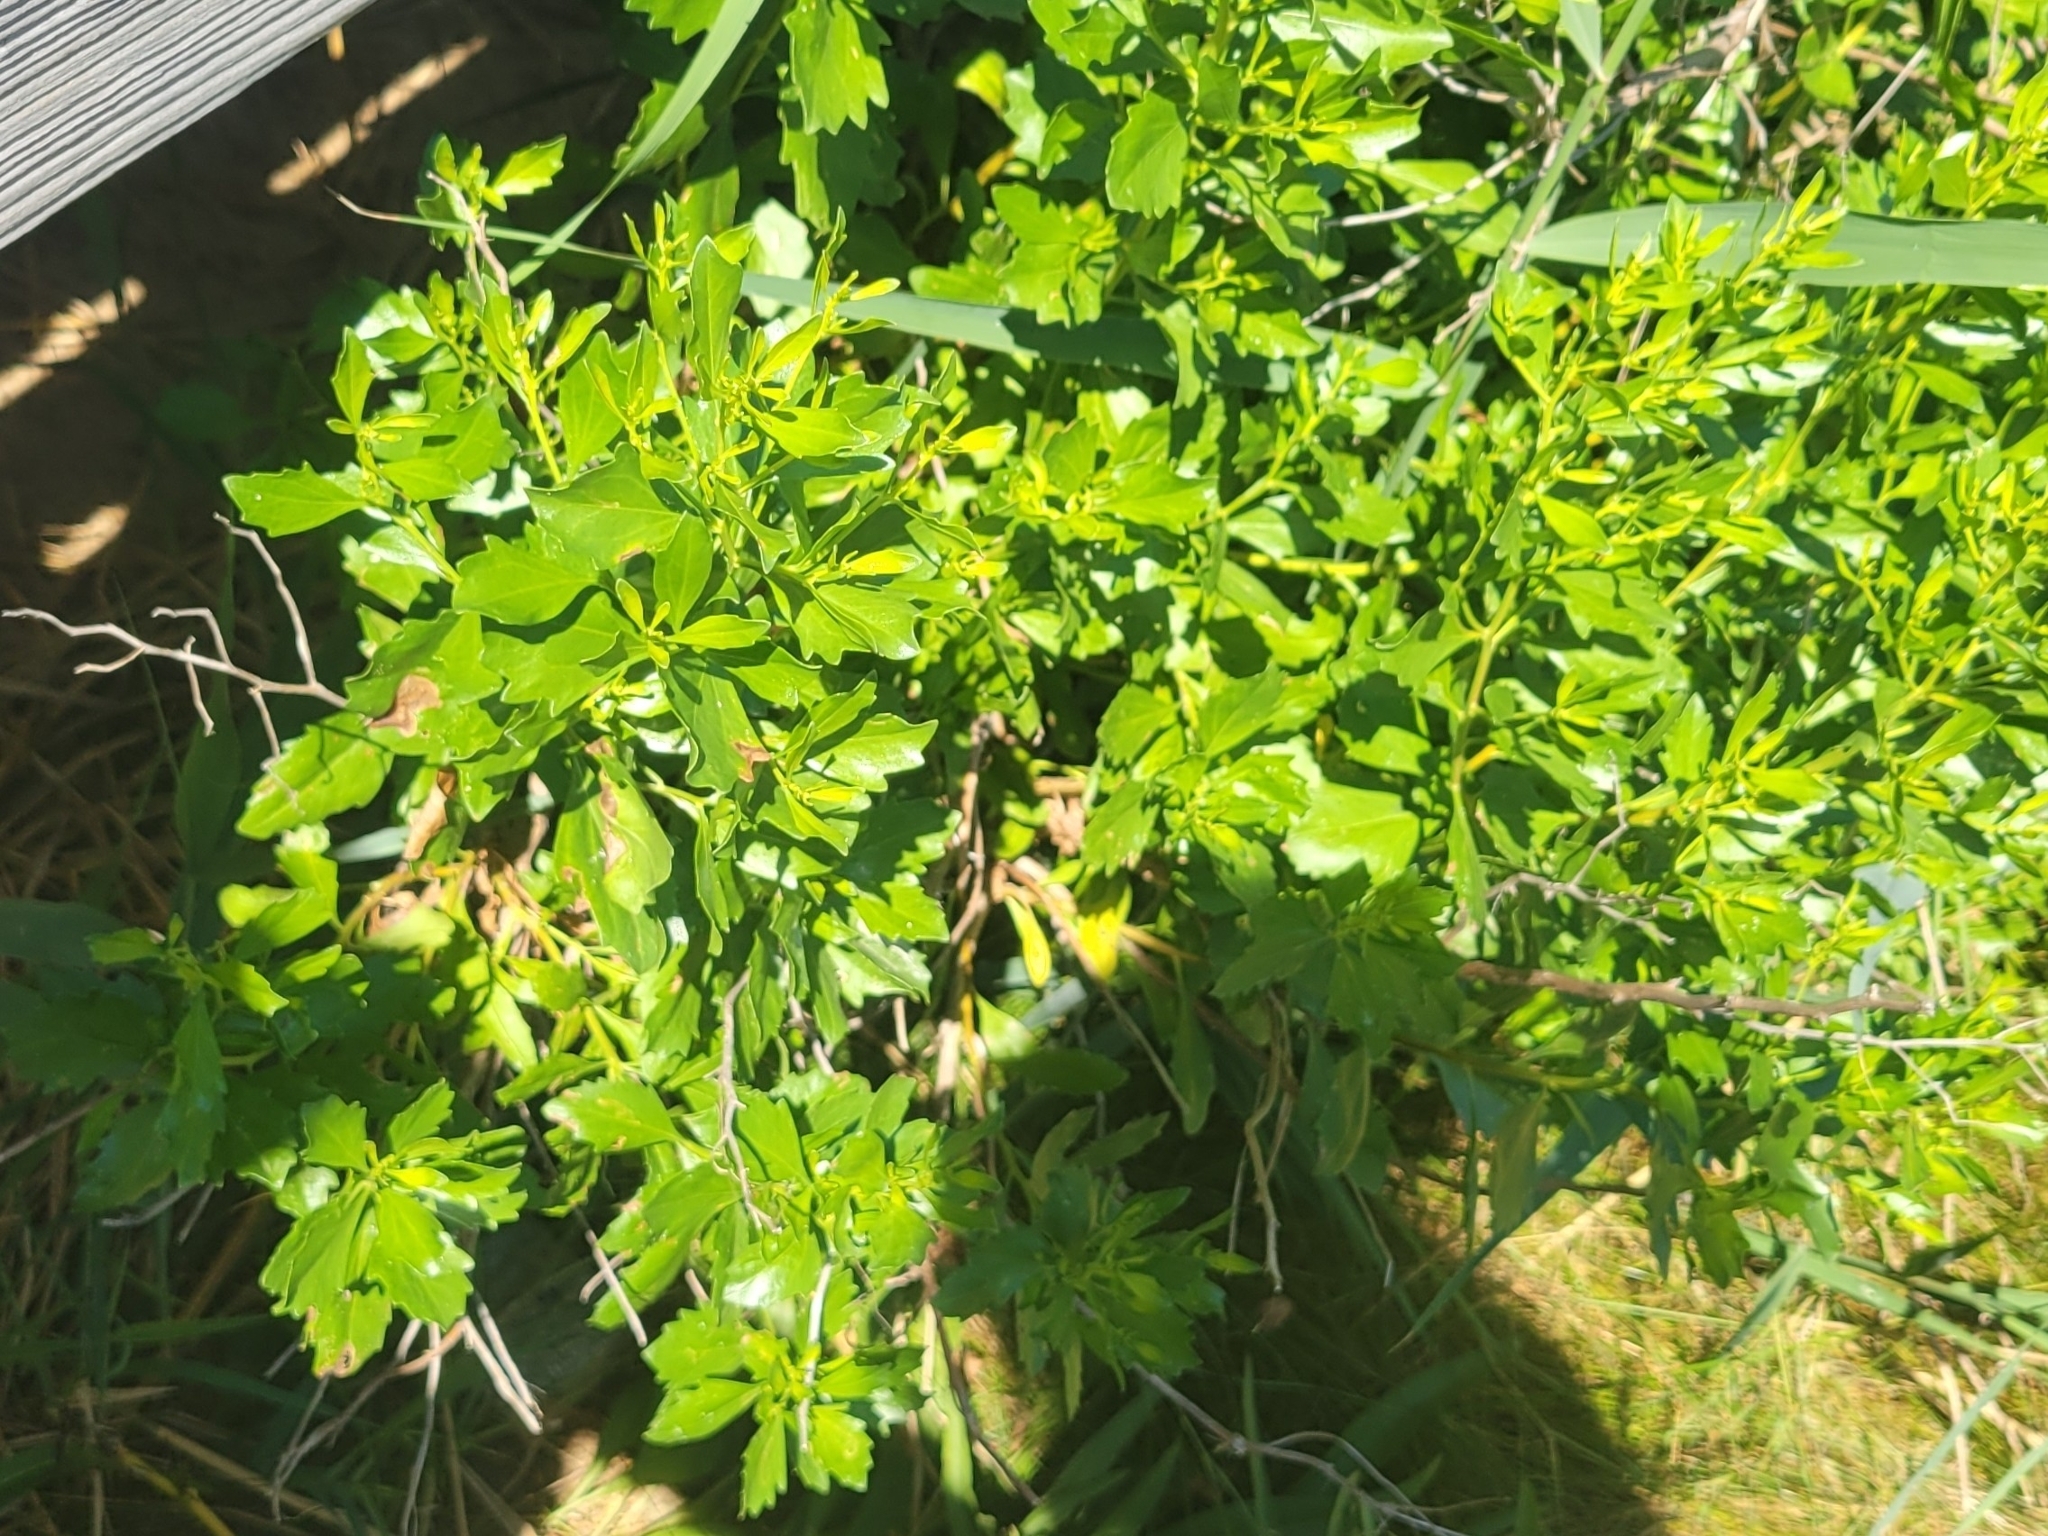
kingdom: Plantae
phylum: Tracheophyta
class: Magnoliopsida
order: Asterales
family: Asteraceae
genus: Baccharis
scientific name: Baccharis halimifolia
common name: Eastern baccharis
